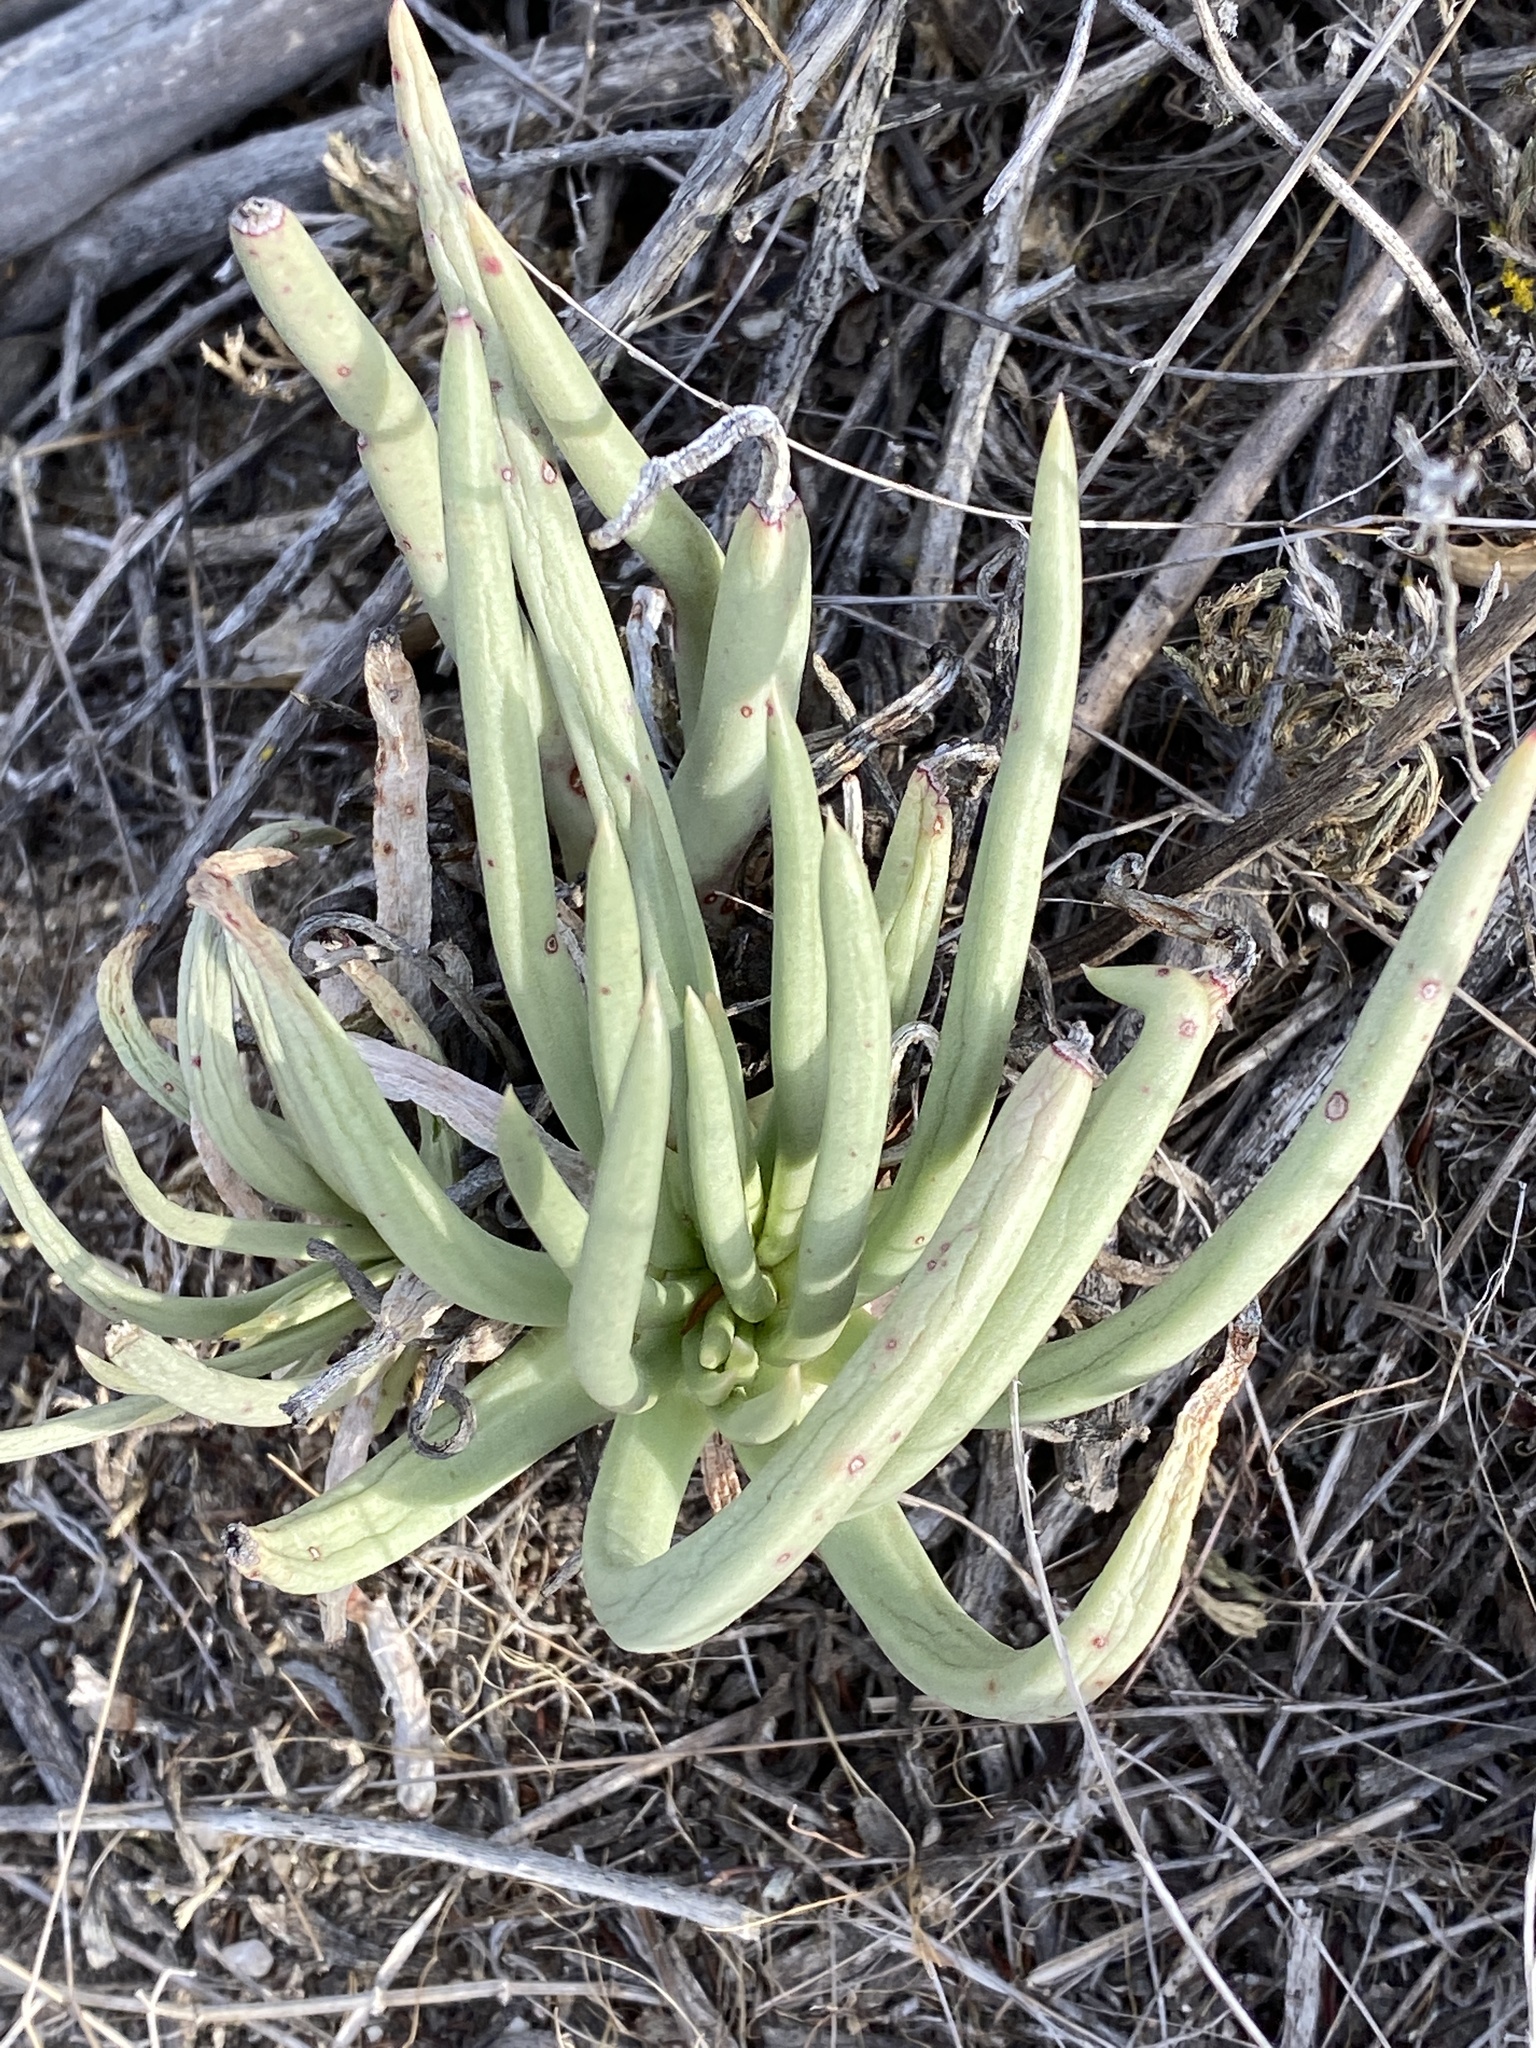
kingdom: Plantae
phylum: Tracheophyta
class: Magnoliopsida
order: Saxifragales
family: Crassulaceae
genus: Dudleya
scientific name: Dudleya edulis
